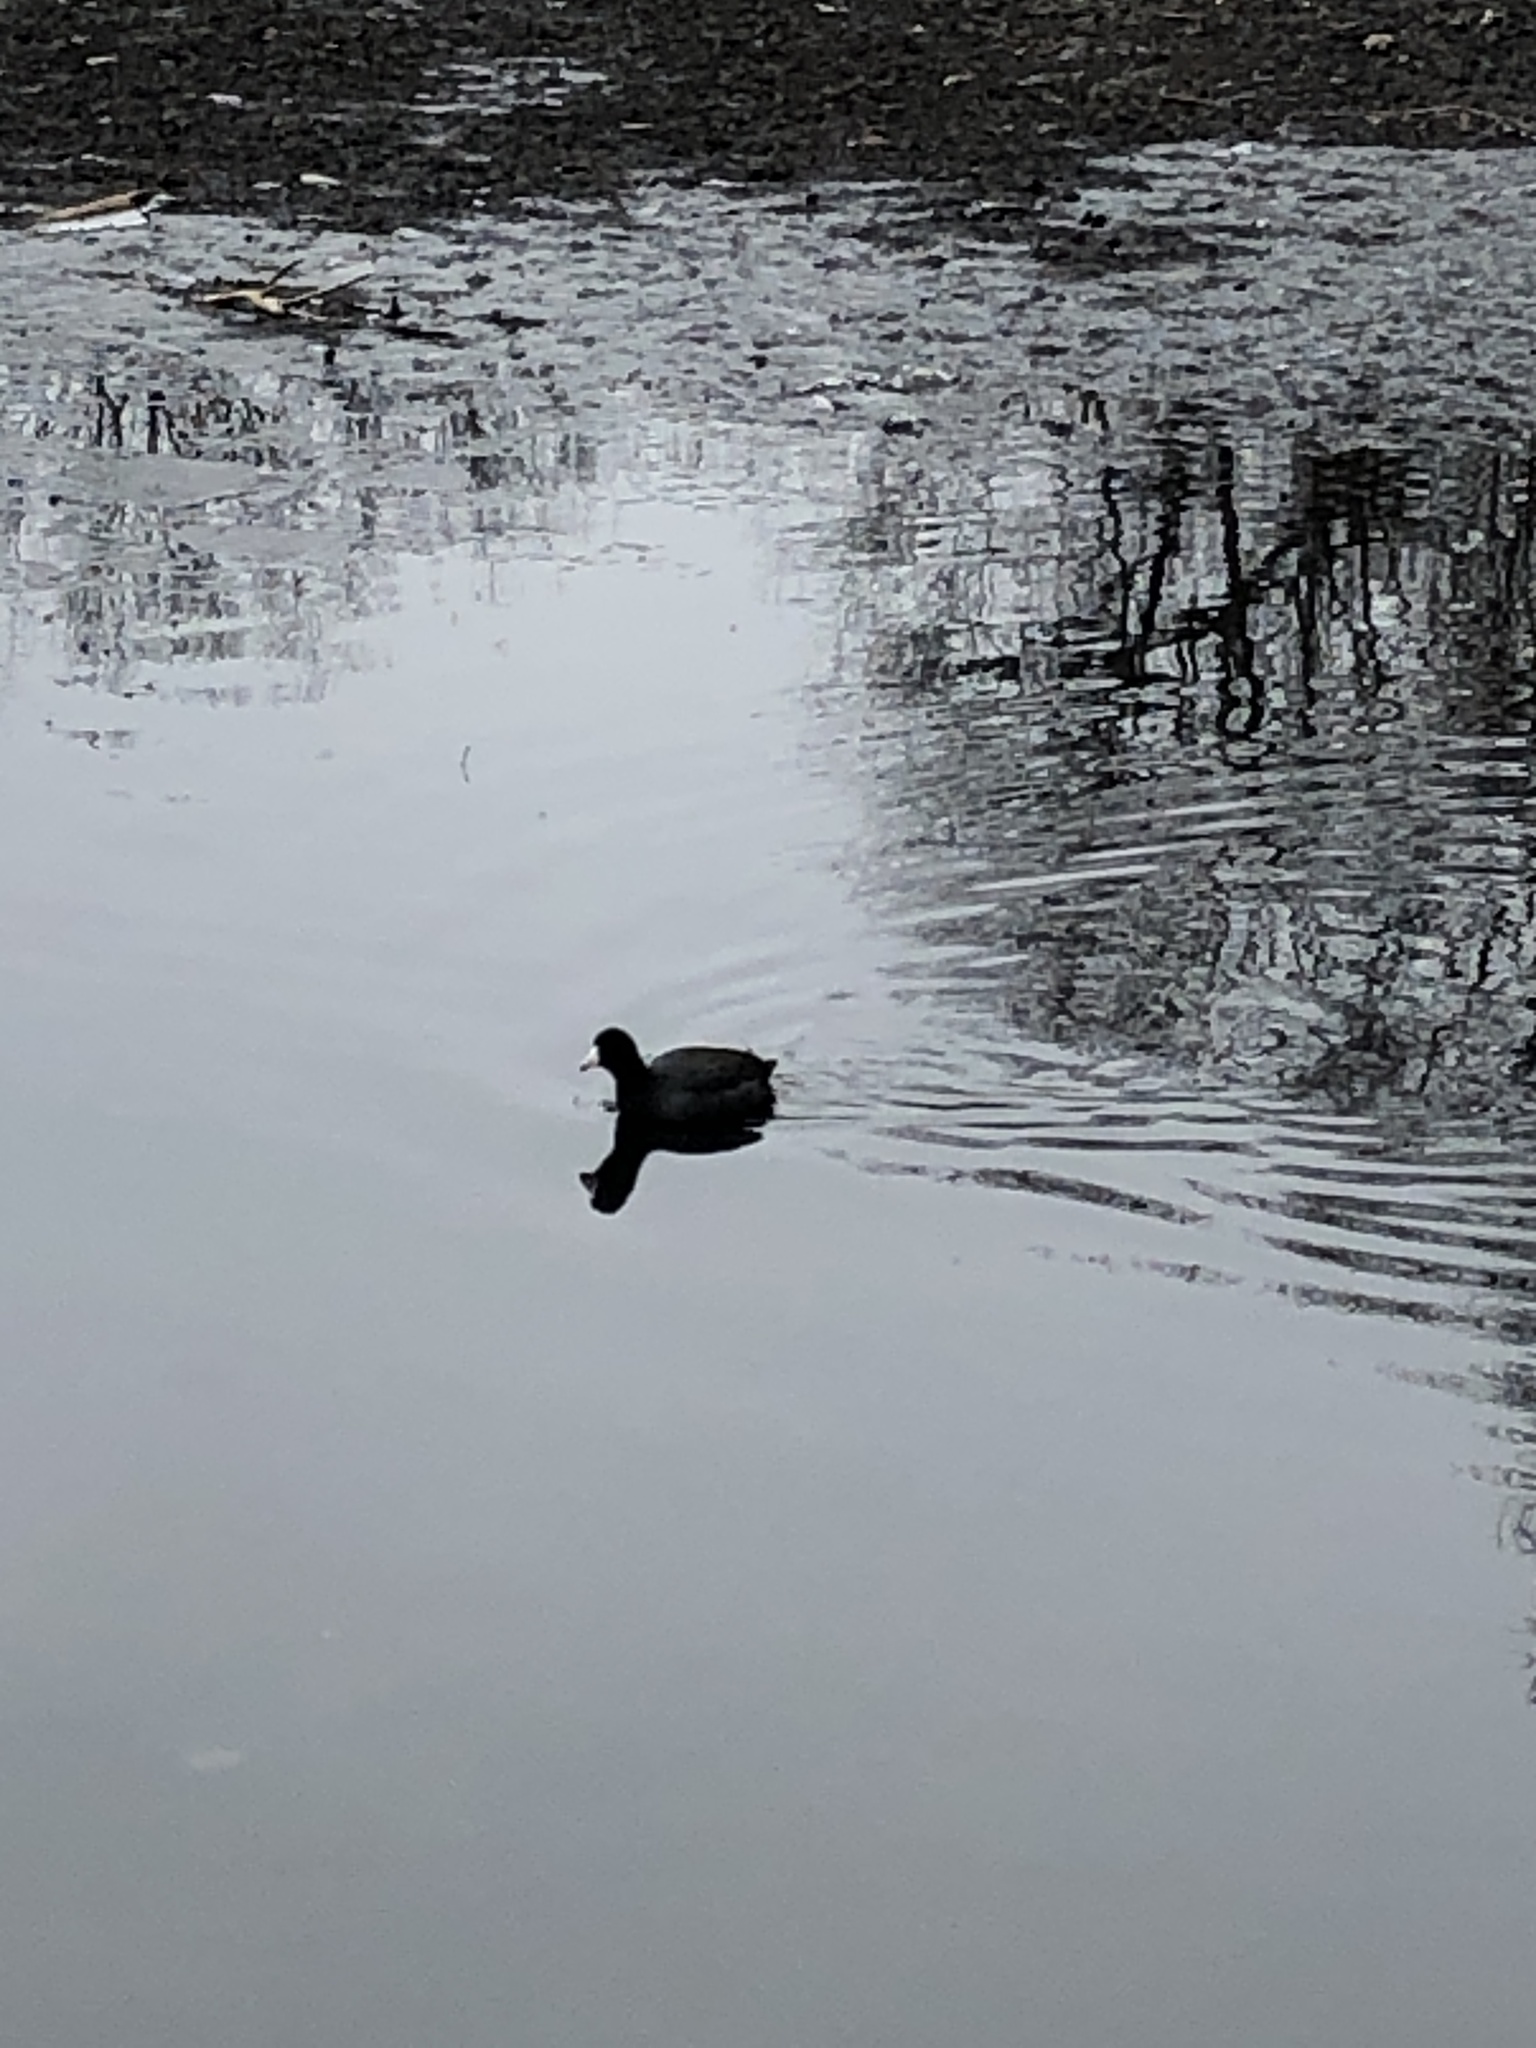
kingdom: Animalia
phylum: Chordata
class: Aves
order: Gruiformes
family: Rallidae
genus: Fulica
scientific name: Fulica americana
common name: American coot
